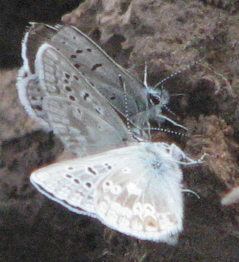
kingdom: Animalia
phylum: Arthropoda
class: Insecta
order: Lepidoptera
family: Lycaenidae
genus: Icaricia
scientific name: Icaricia icarioides
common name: Boisduval's blue
